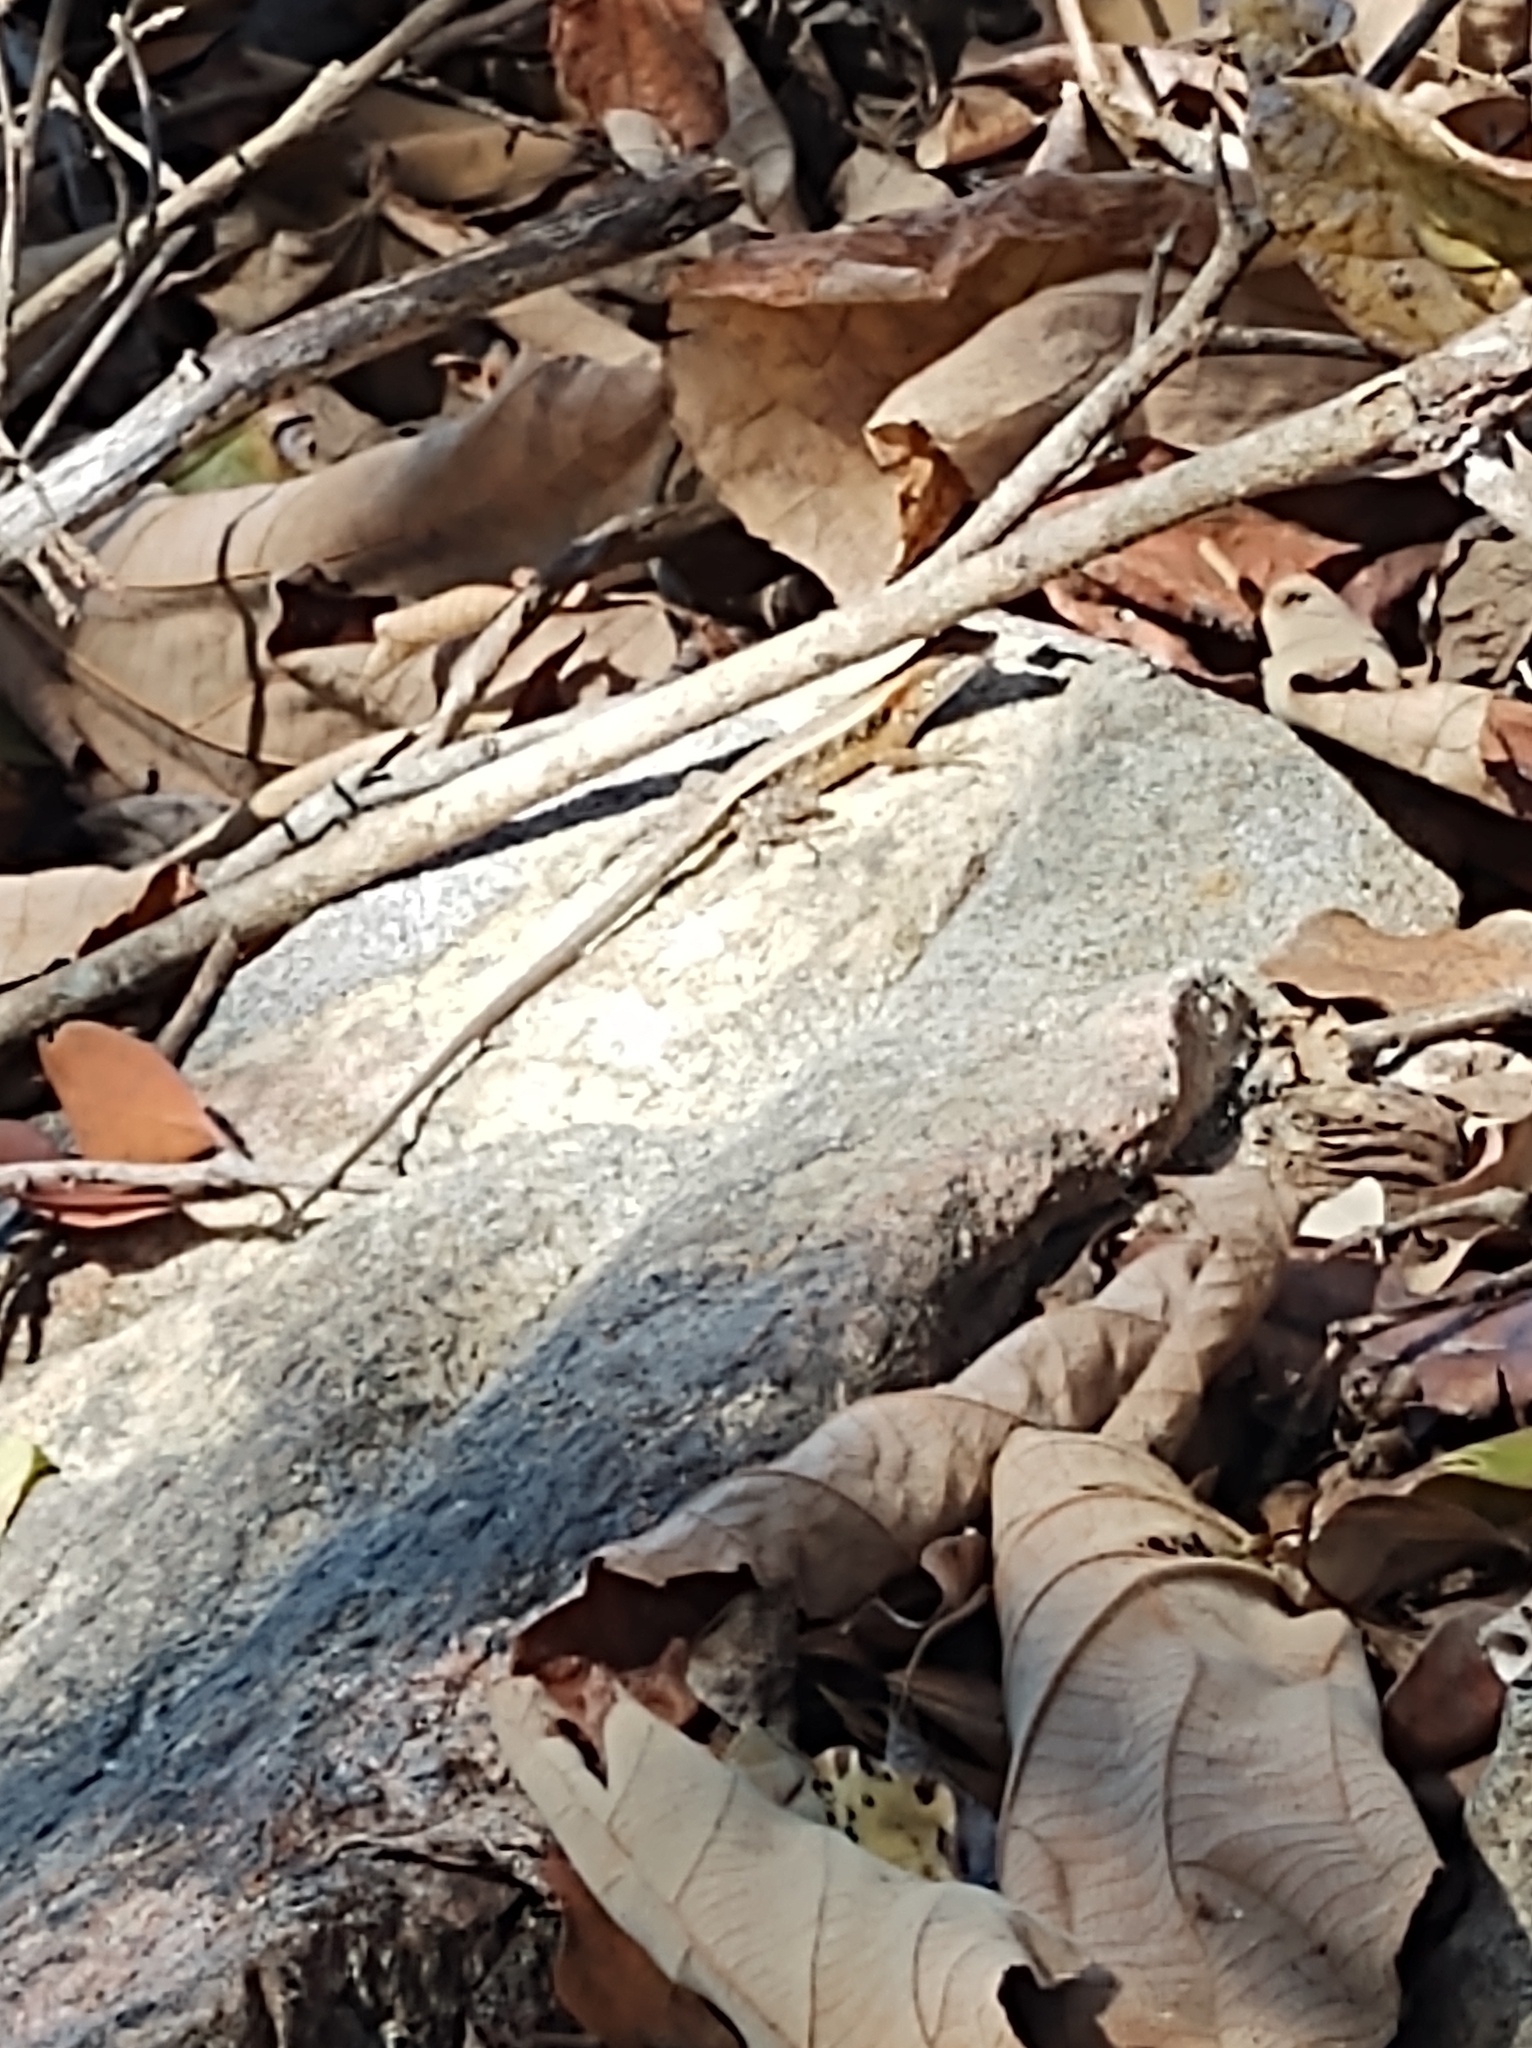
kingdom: Animalia
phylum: Chordata
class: Squamata
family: Phrynosomatidae
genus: Sceloporus
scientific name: Sceloporus siniferus
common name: Longtail spiny lizard
